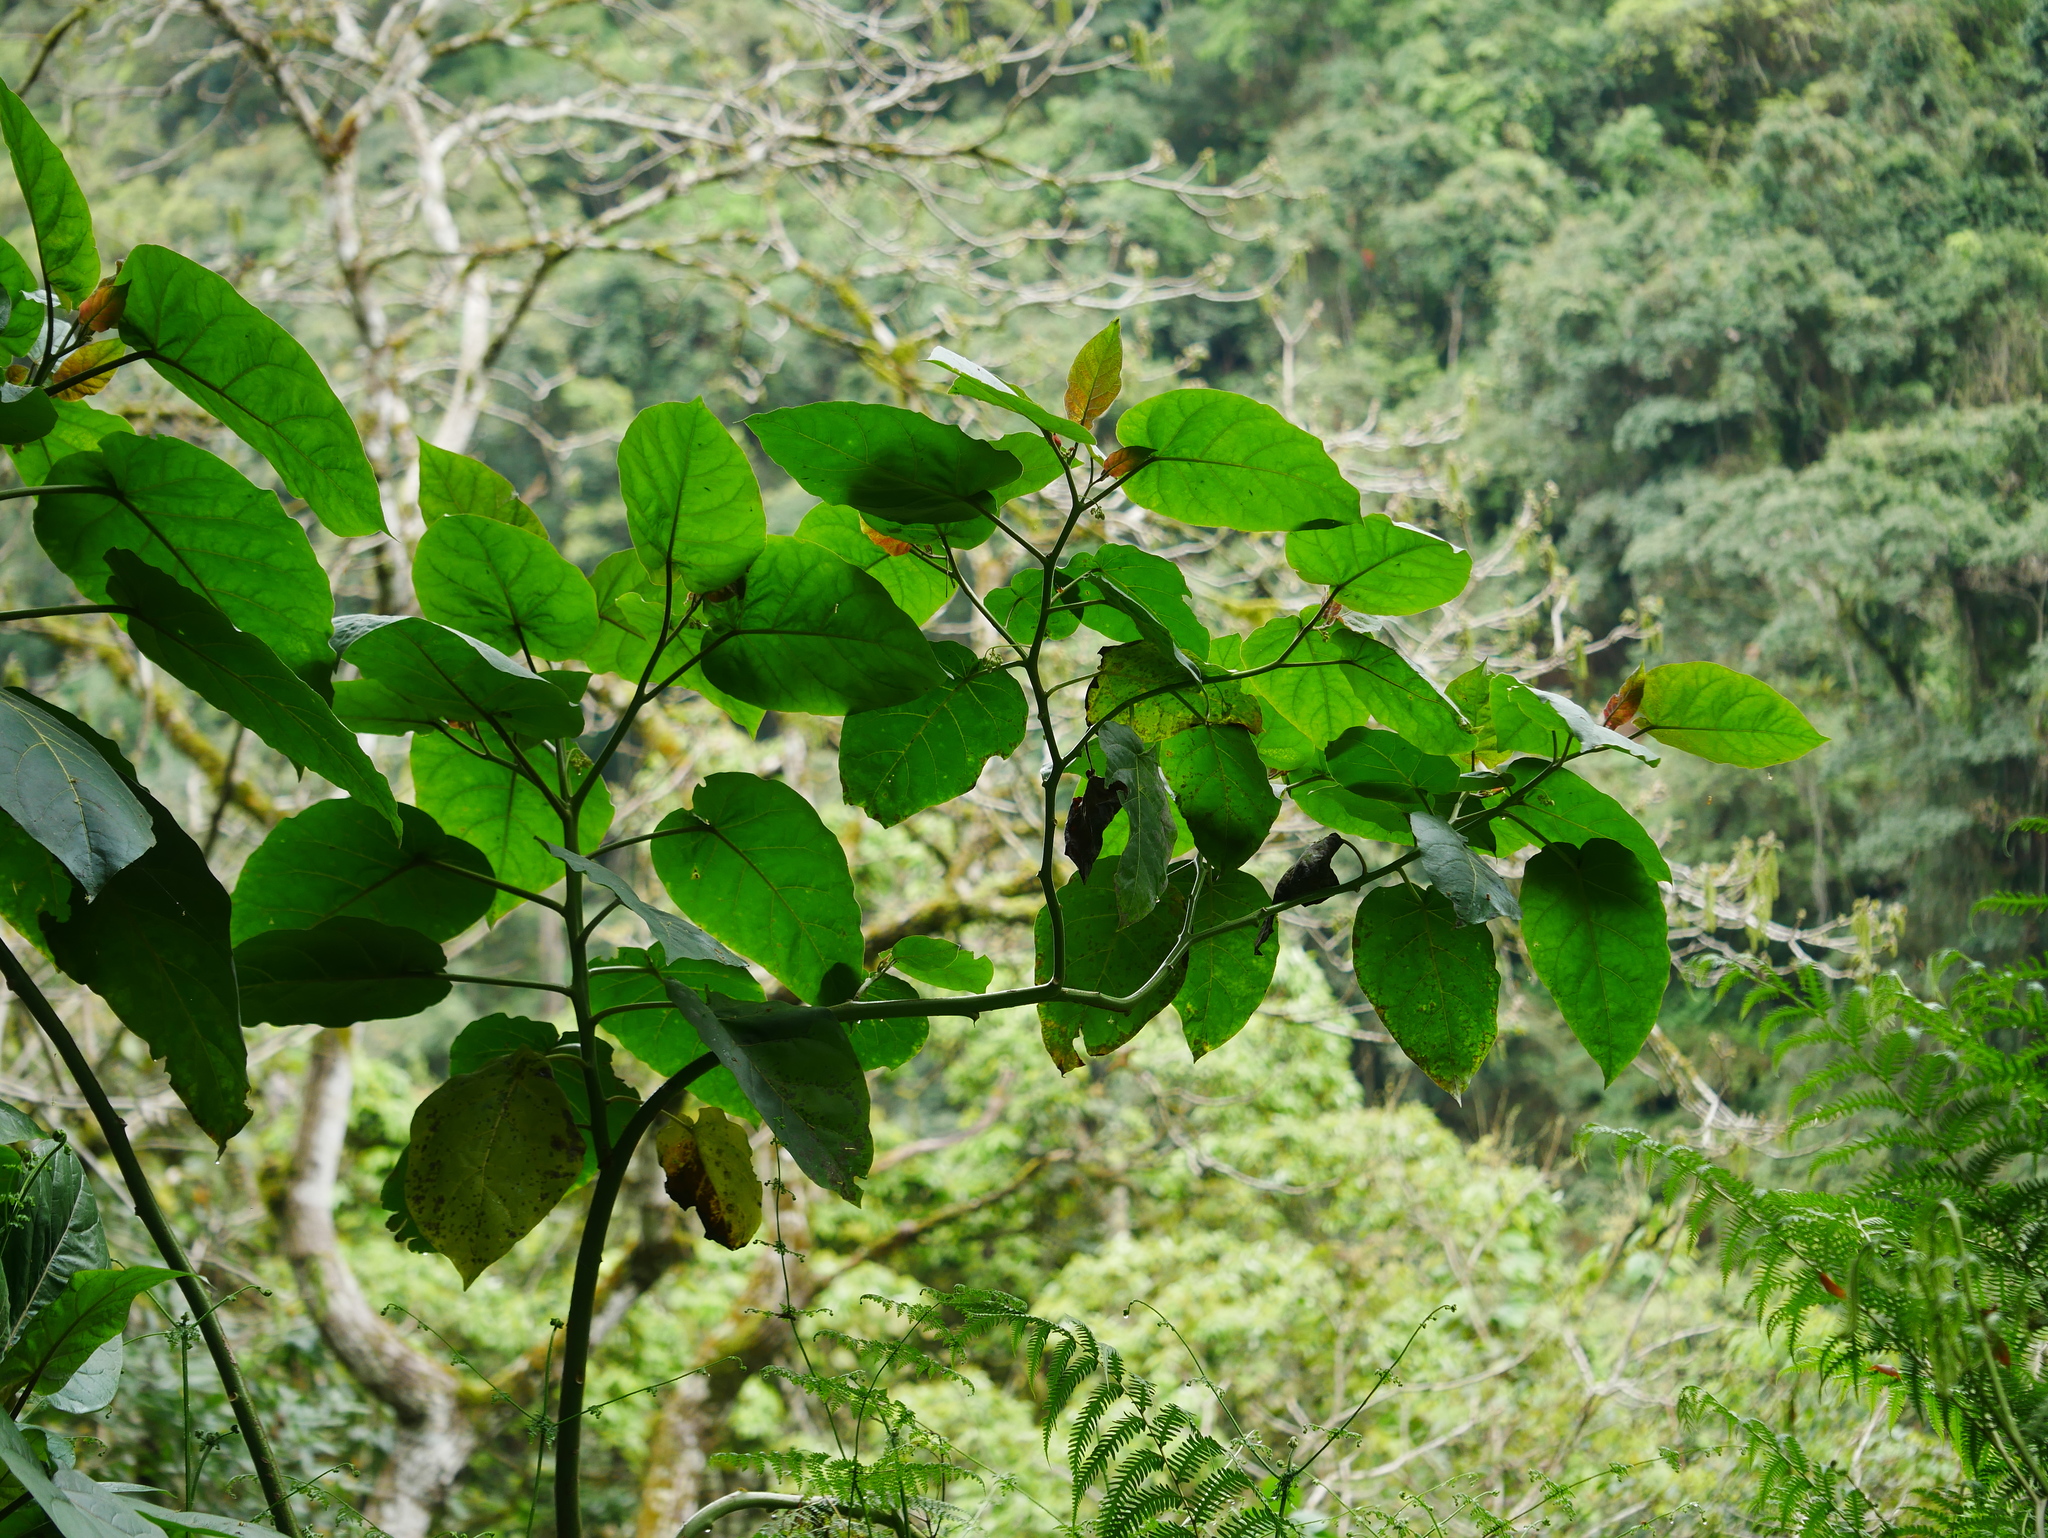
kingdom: Plantae
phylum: Tracheophyta
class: Magnoliopsida
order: Solanales
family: Solanaceae
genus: Solanum
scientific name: Solanum betaceum
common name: Tamarillo
